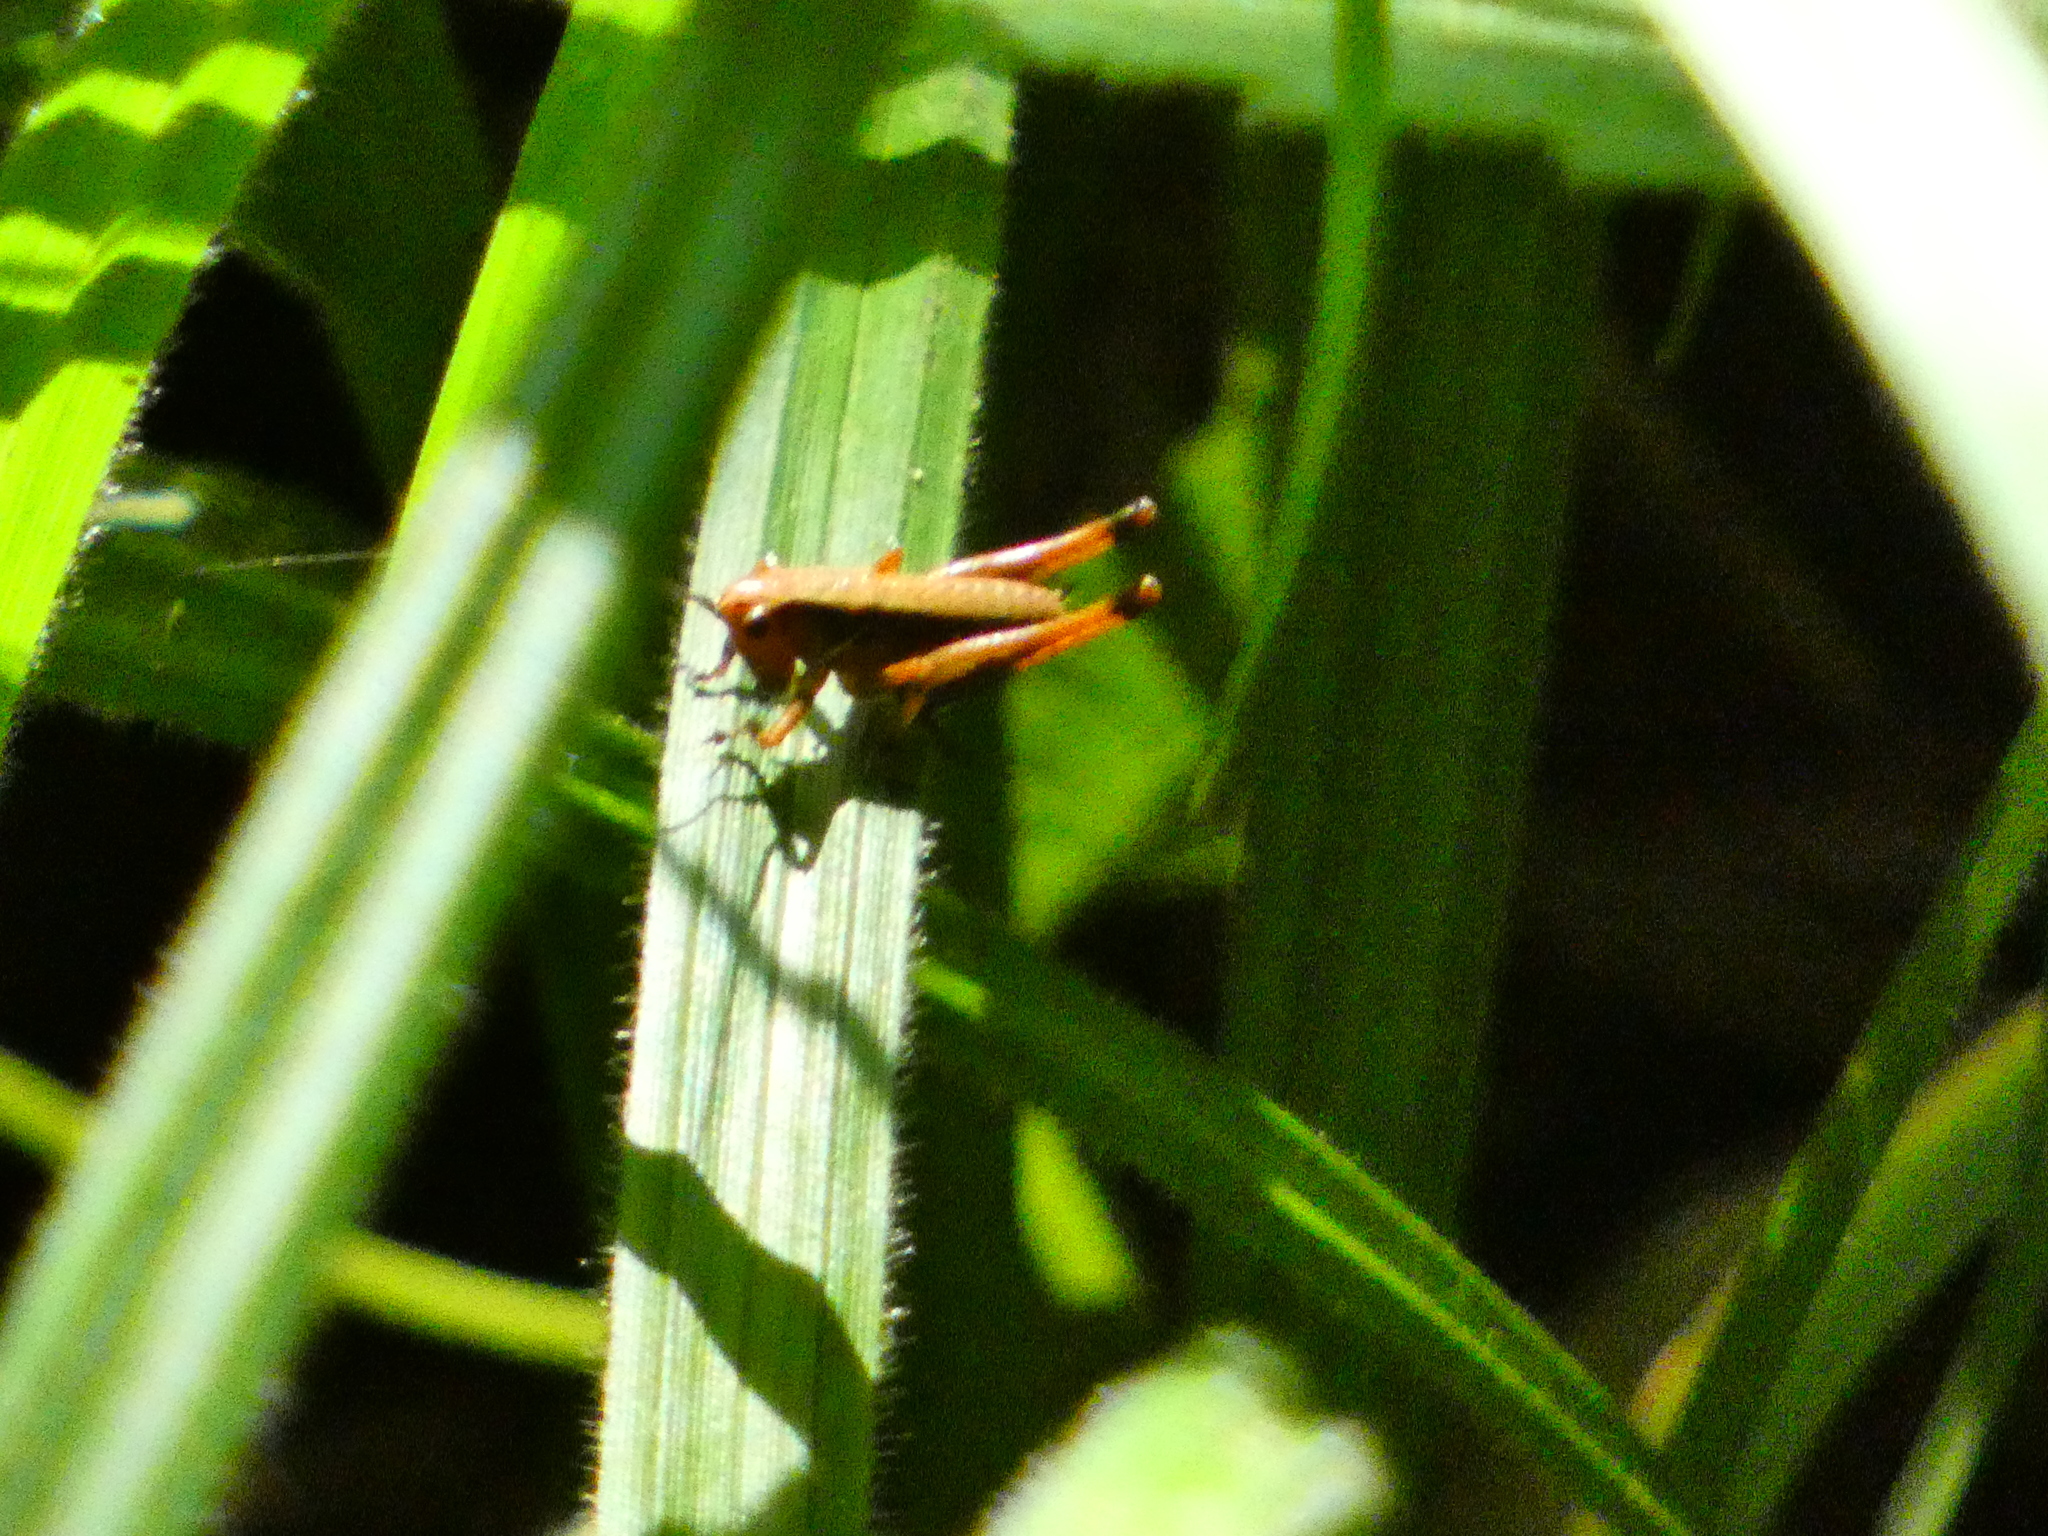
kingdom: Animalia
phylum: Arthropoda
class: Insecta
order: Orthoptera
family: Tettigoniidae
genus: Pholidoptera
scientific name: Pholidoptera griseoaptera
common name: Dark bush-cricket
